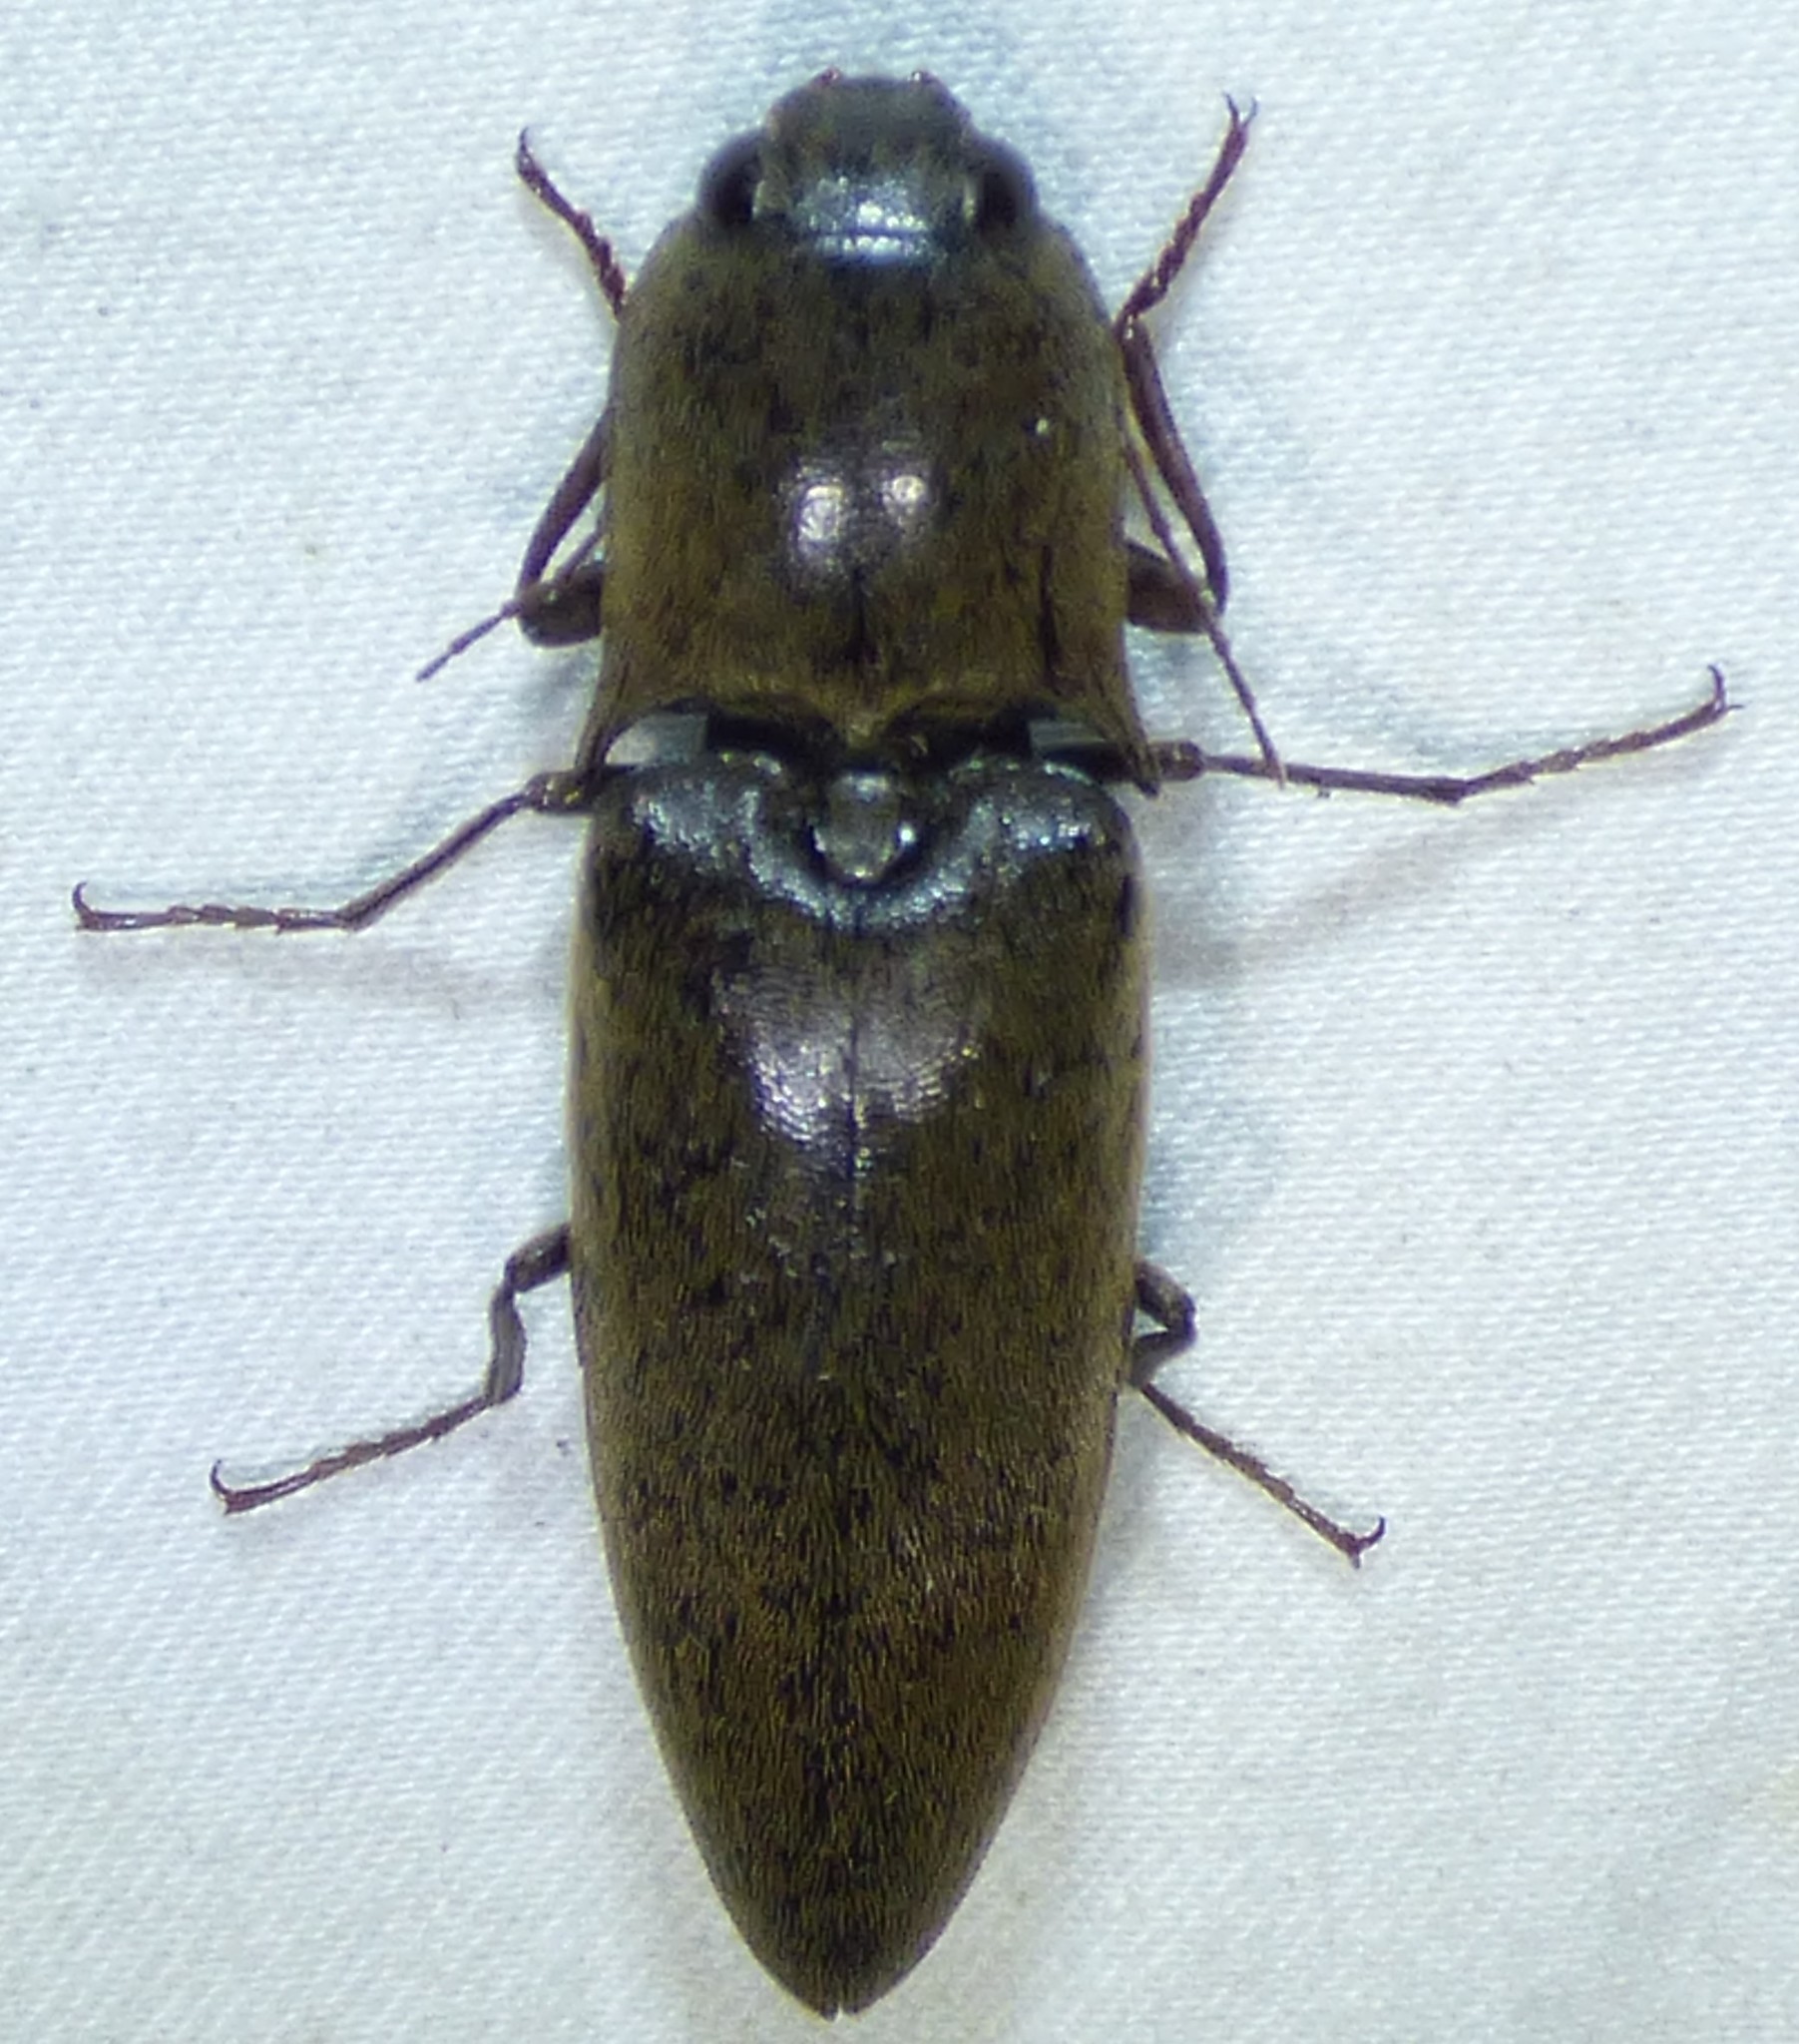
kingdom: Animalia
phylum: Arthropoda
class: Insecta
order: Coleoptera
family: Elateridae
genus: Orthostethus
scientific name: Orthostethus infuscatus
